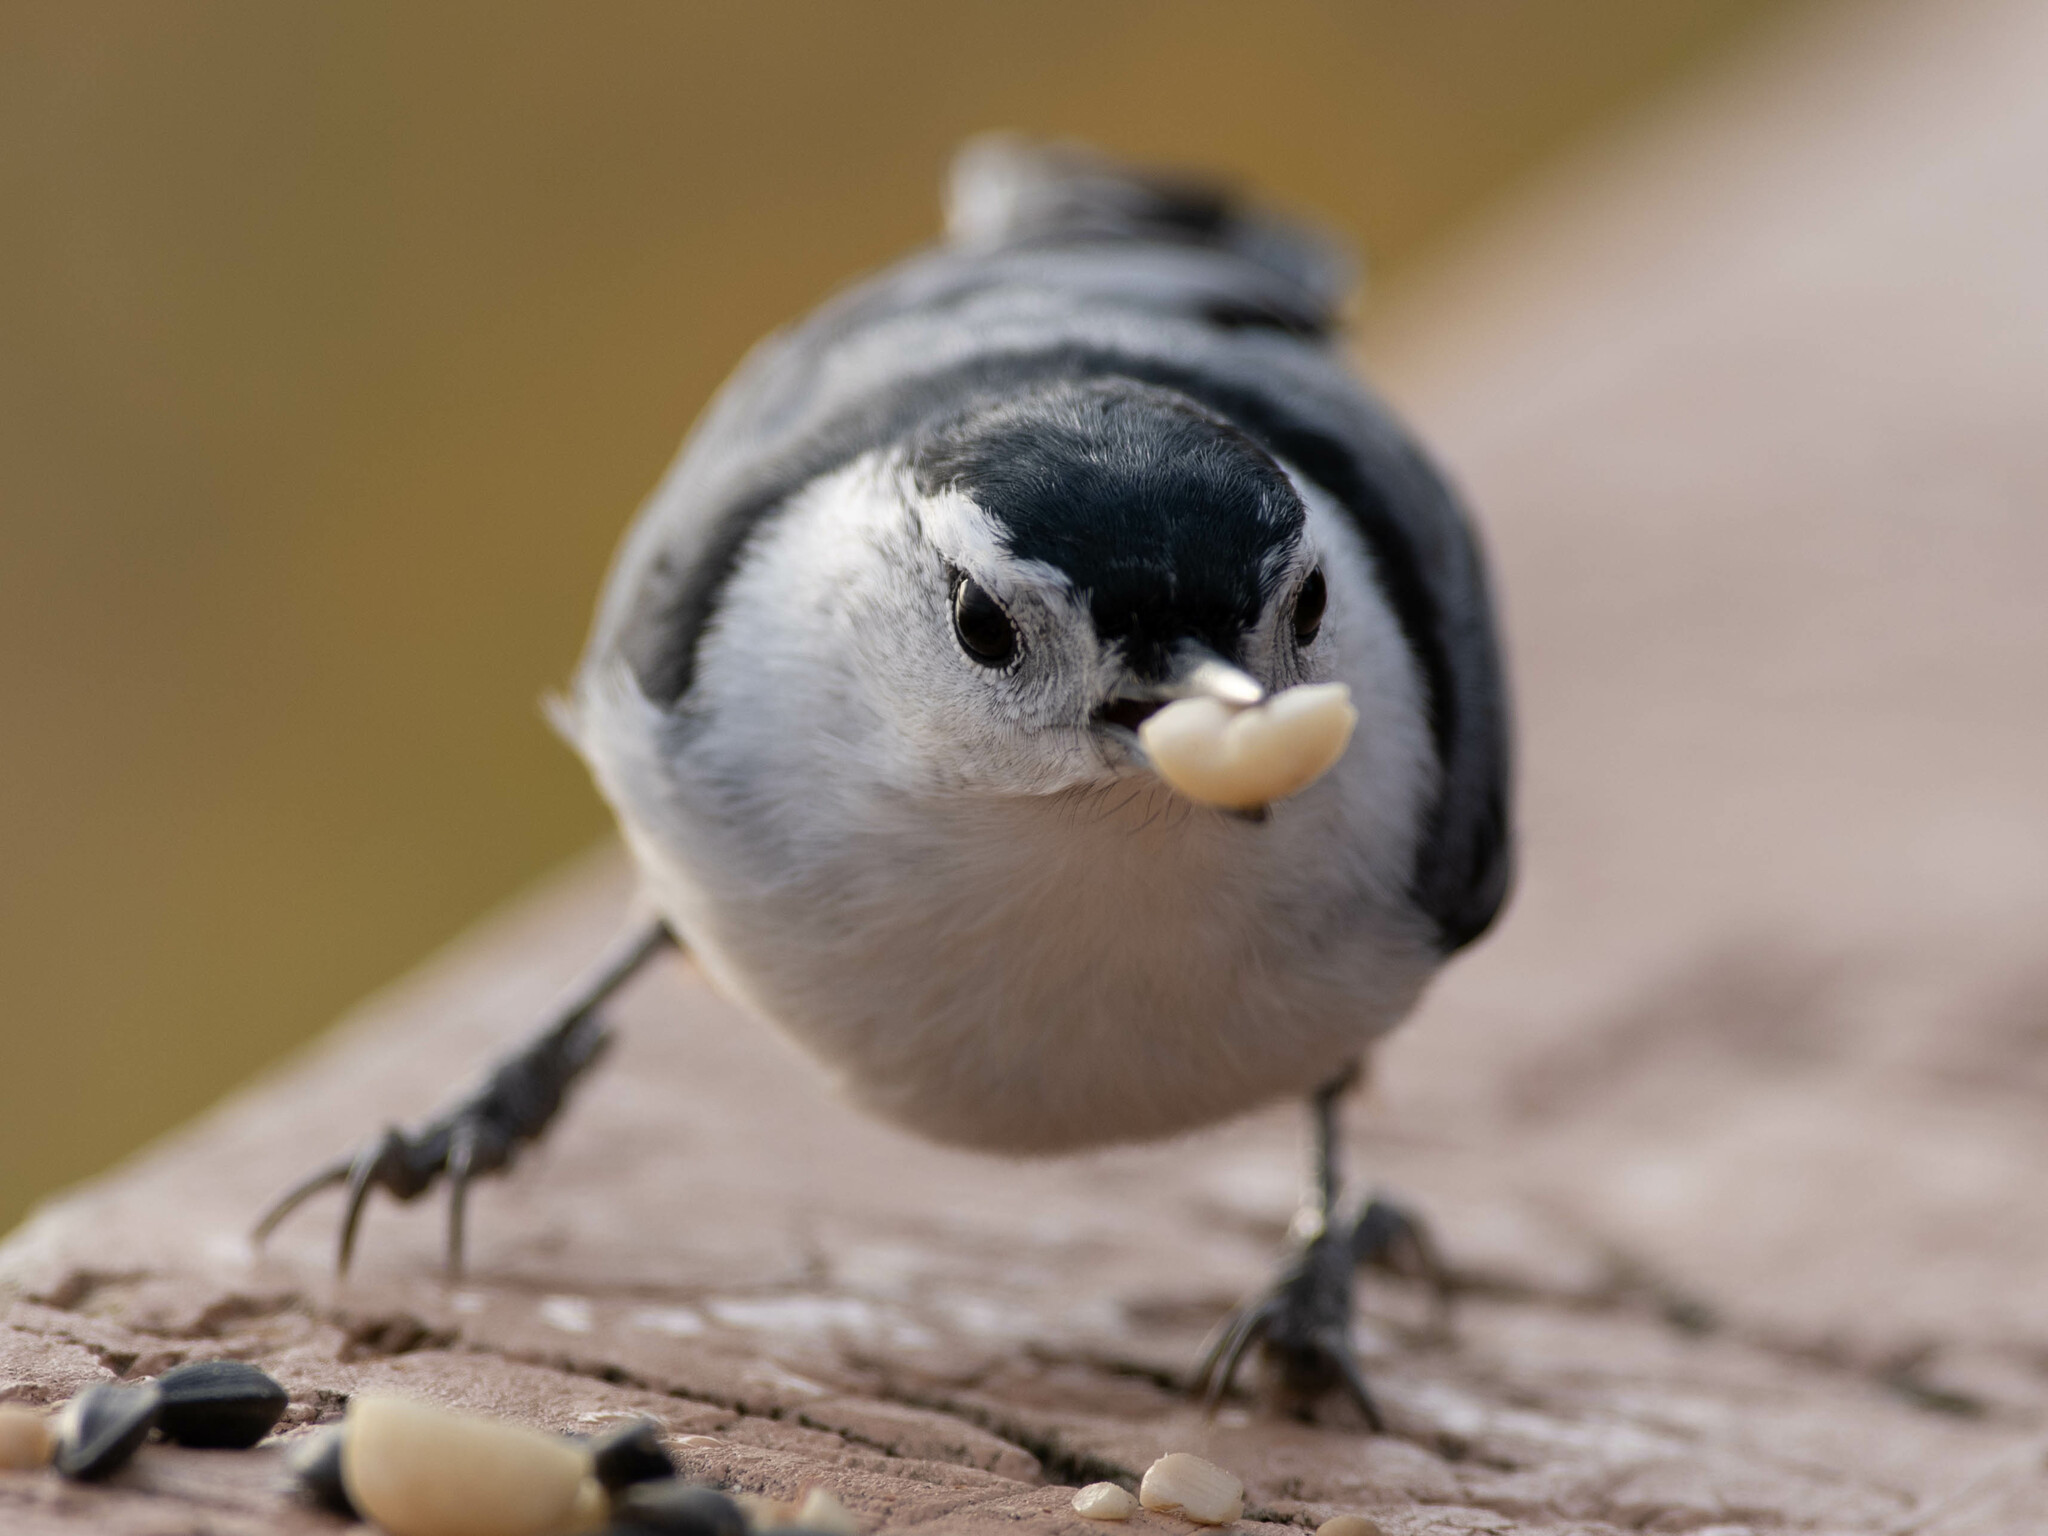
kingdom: Animalia
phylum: Chordata
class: Aves
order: Passeriformes
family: Sittidae
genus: Sitta
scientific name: Sitta carolinensis
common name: White-breasted nuthatch
